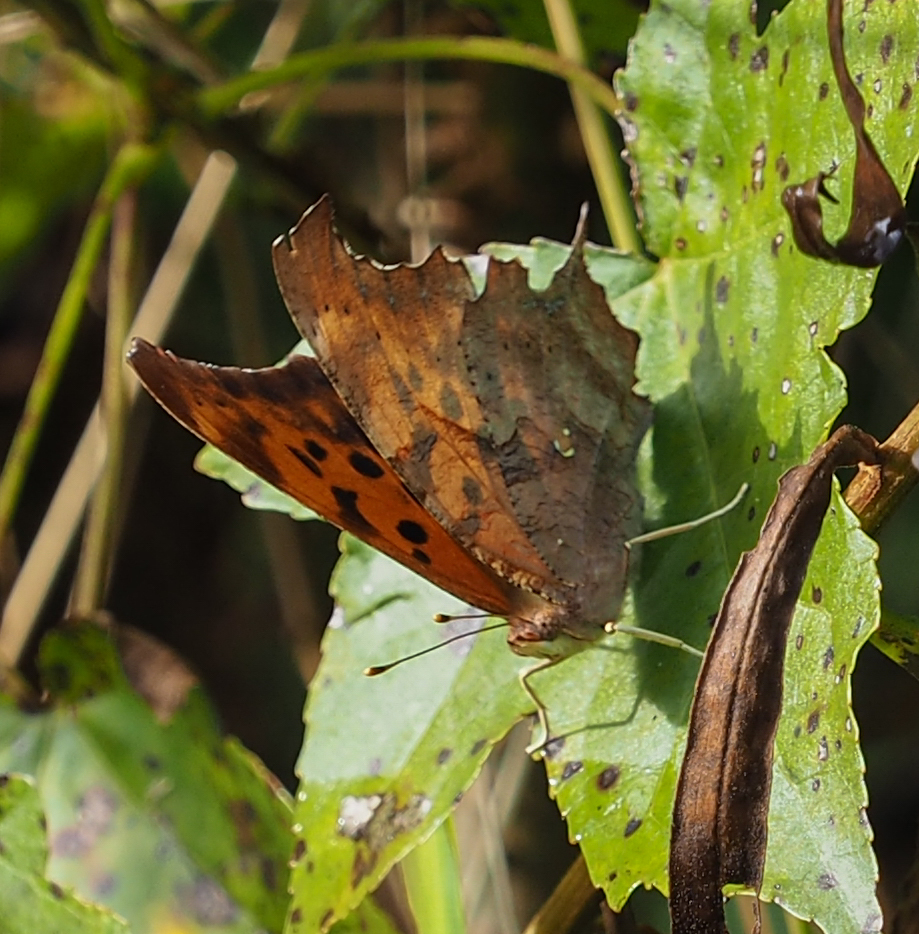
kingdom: Animalia
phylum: Arthropoda
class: Insecta
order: Lepidoptera
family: Nymphalidae
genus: Polygonia
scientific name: Polygonia interrogationis
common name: Question mark
